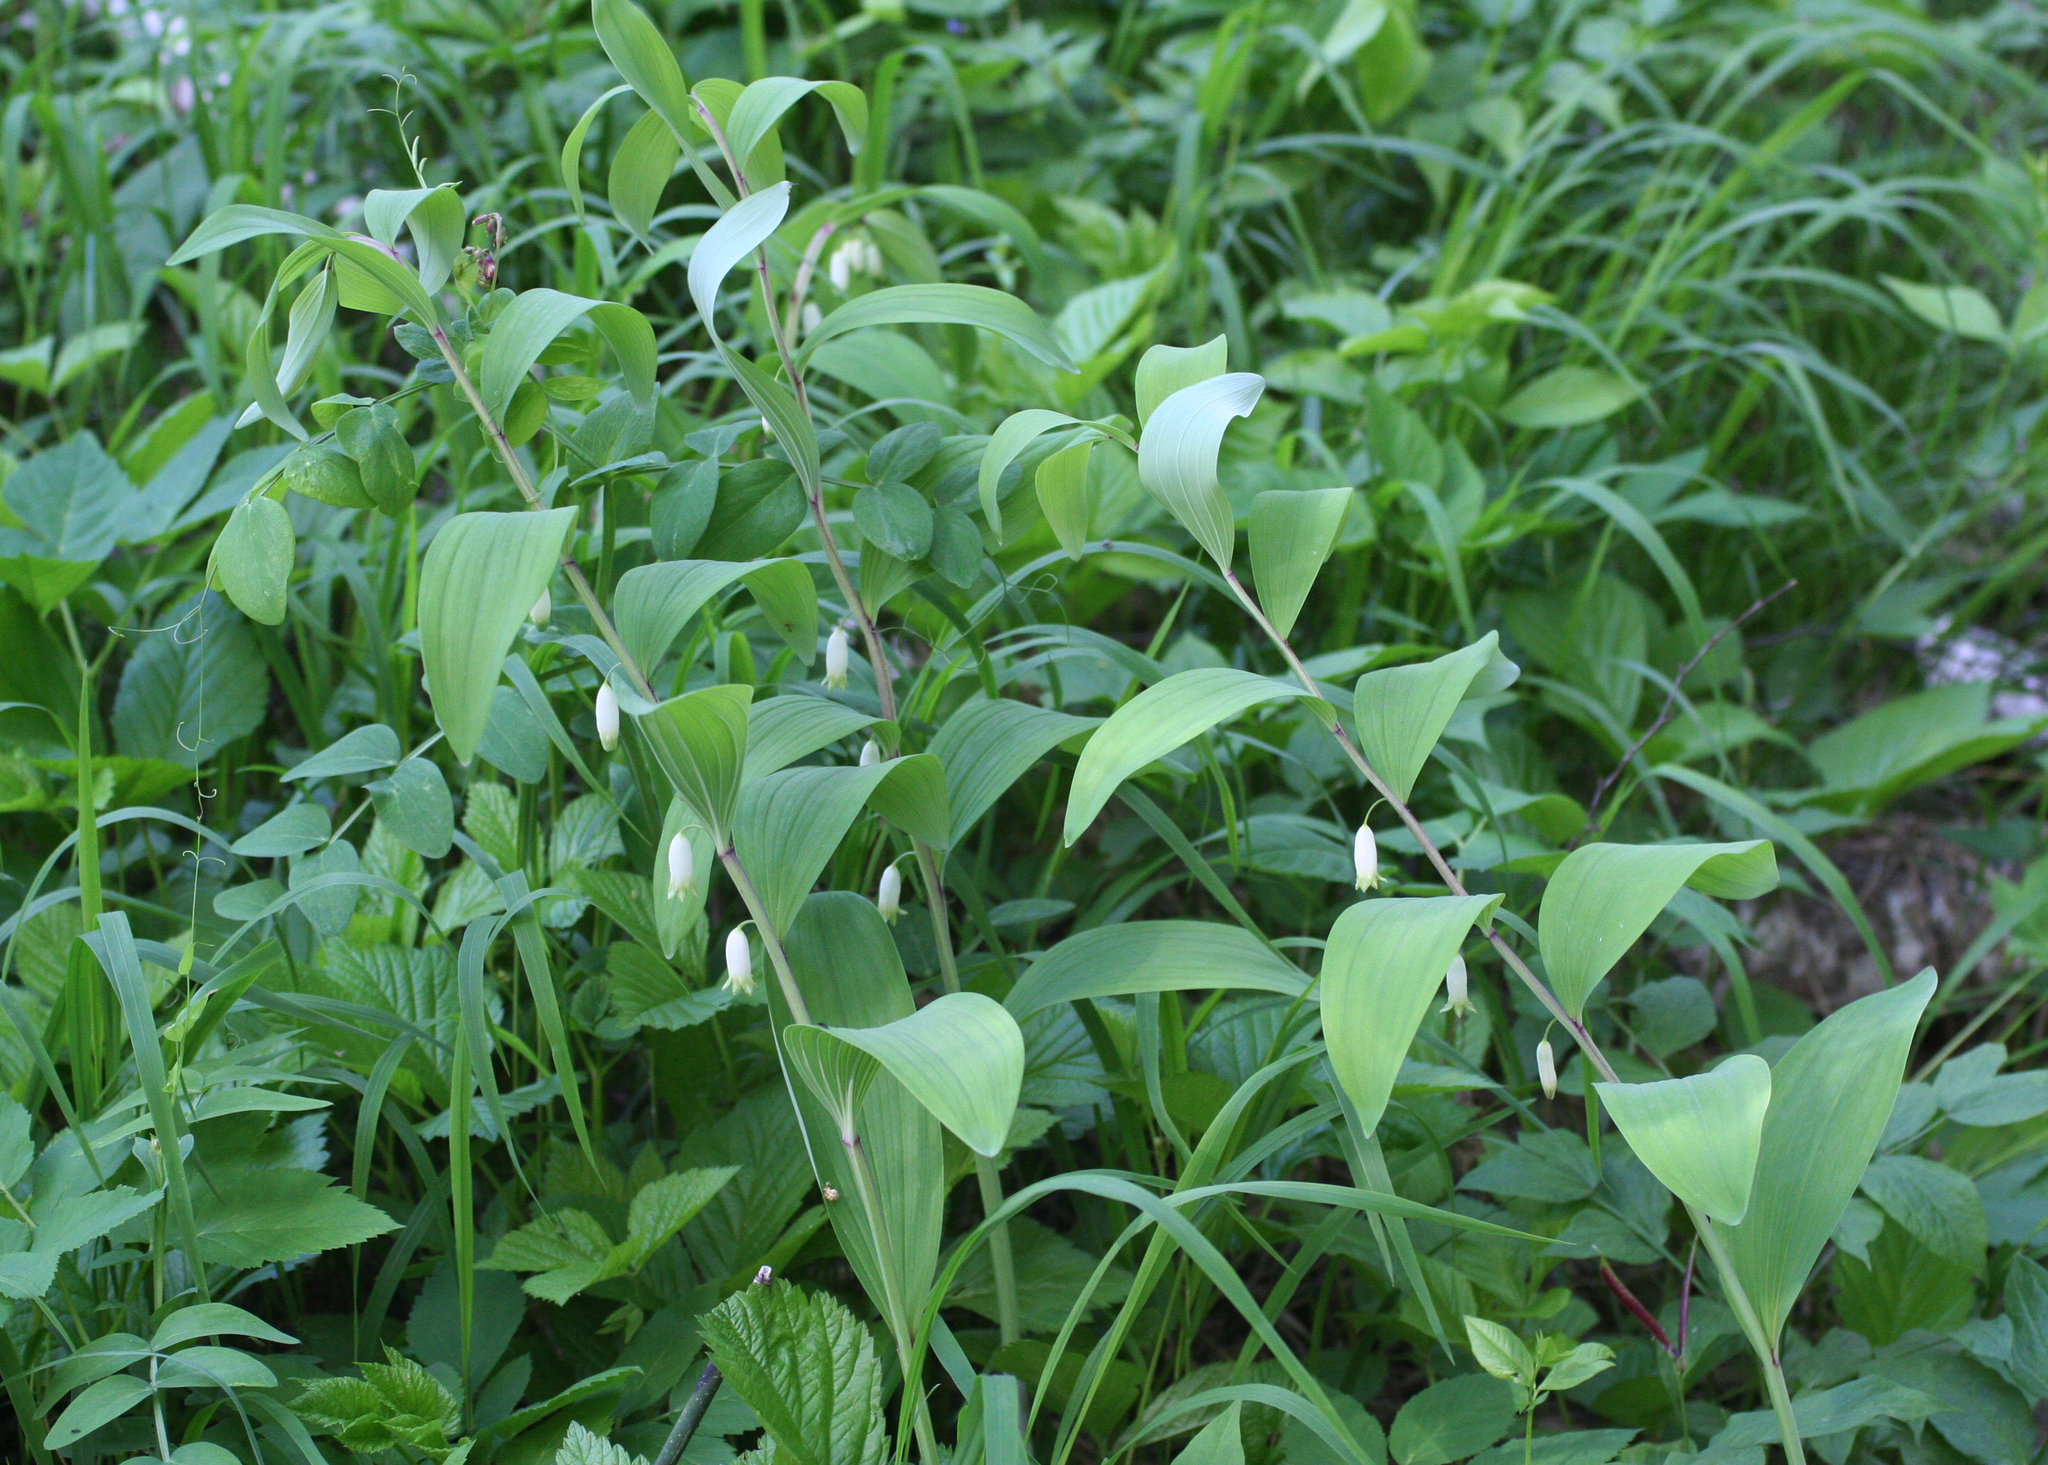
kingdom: Plantae
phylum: Tracheophyta
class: Liliopsida
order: Asparagales
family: Asparagaceae
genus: Polygonatum
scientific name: Polygonatum odoratum
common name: Angular solomon's-seal
